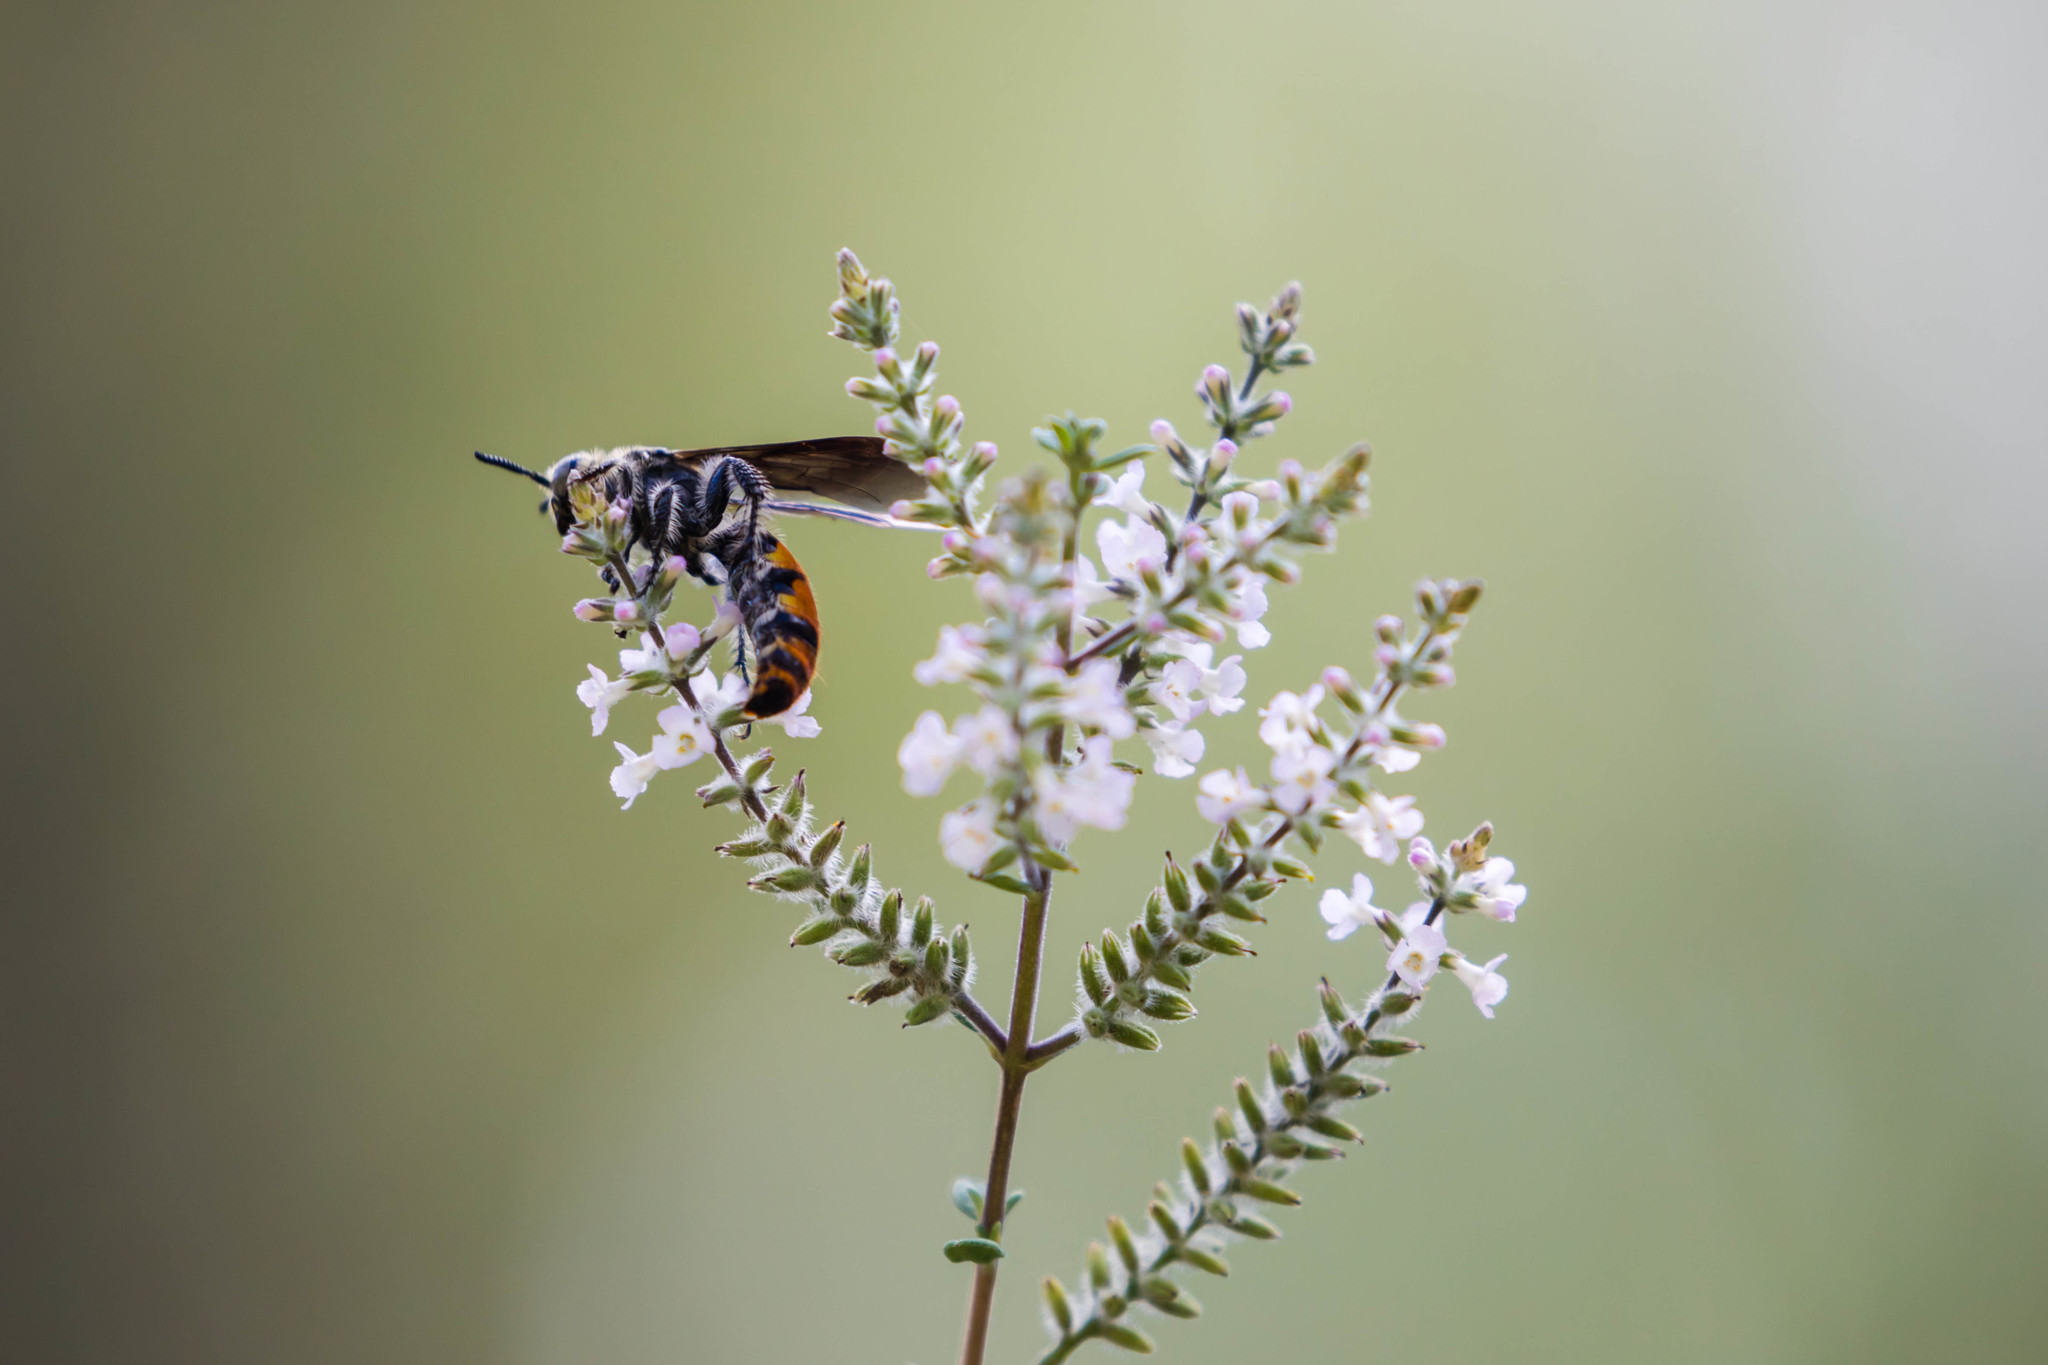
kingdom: Animalia
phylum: Arthropoda
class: Insecta
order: Hymenoptera
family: Scoliidae
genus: Dielis
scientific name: Dielis tolteca
